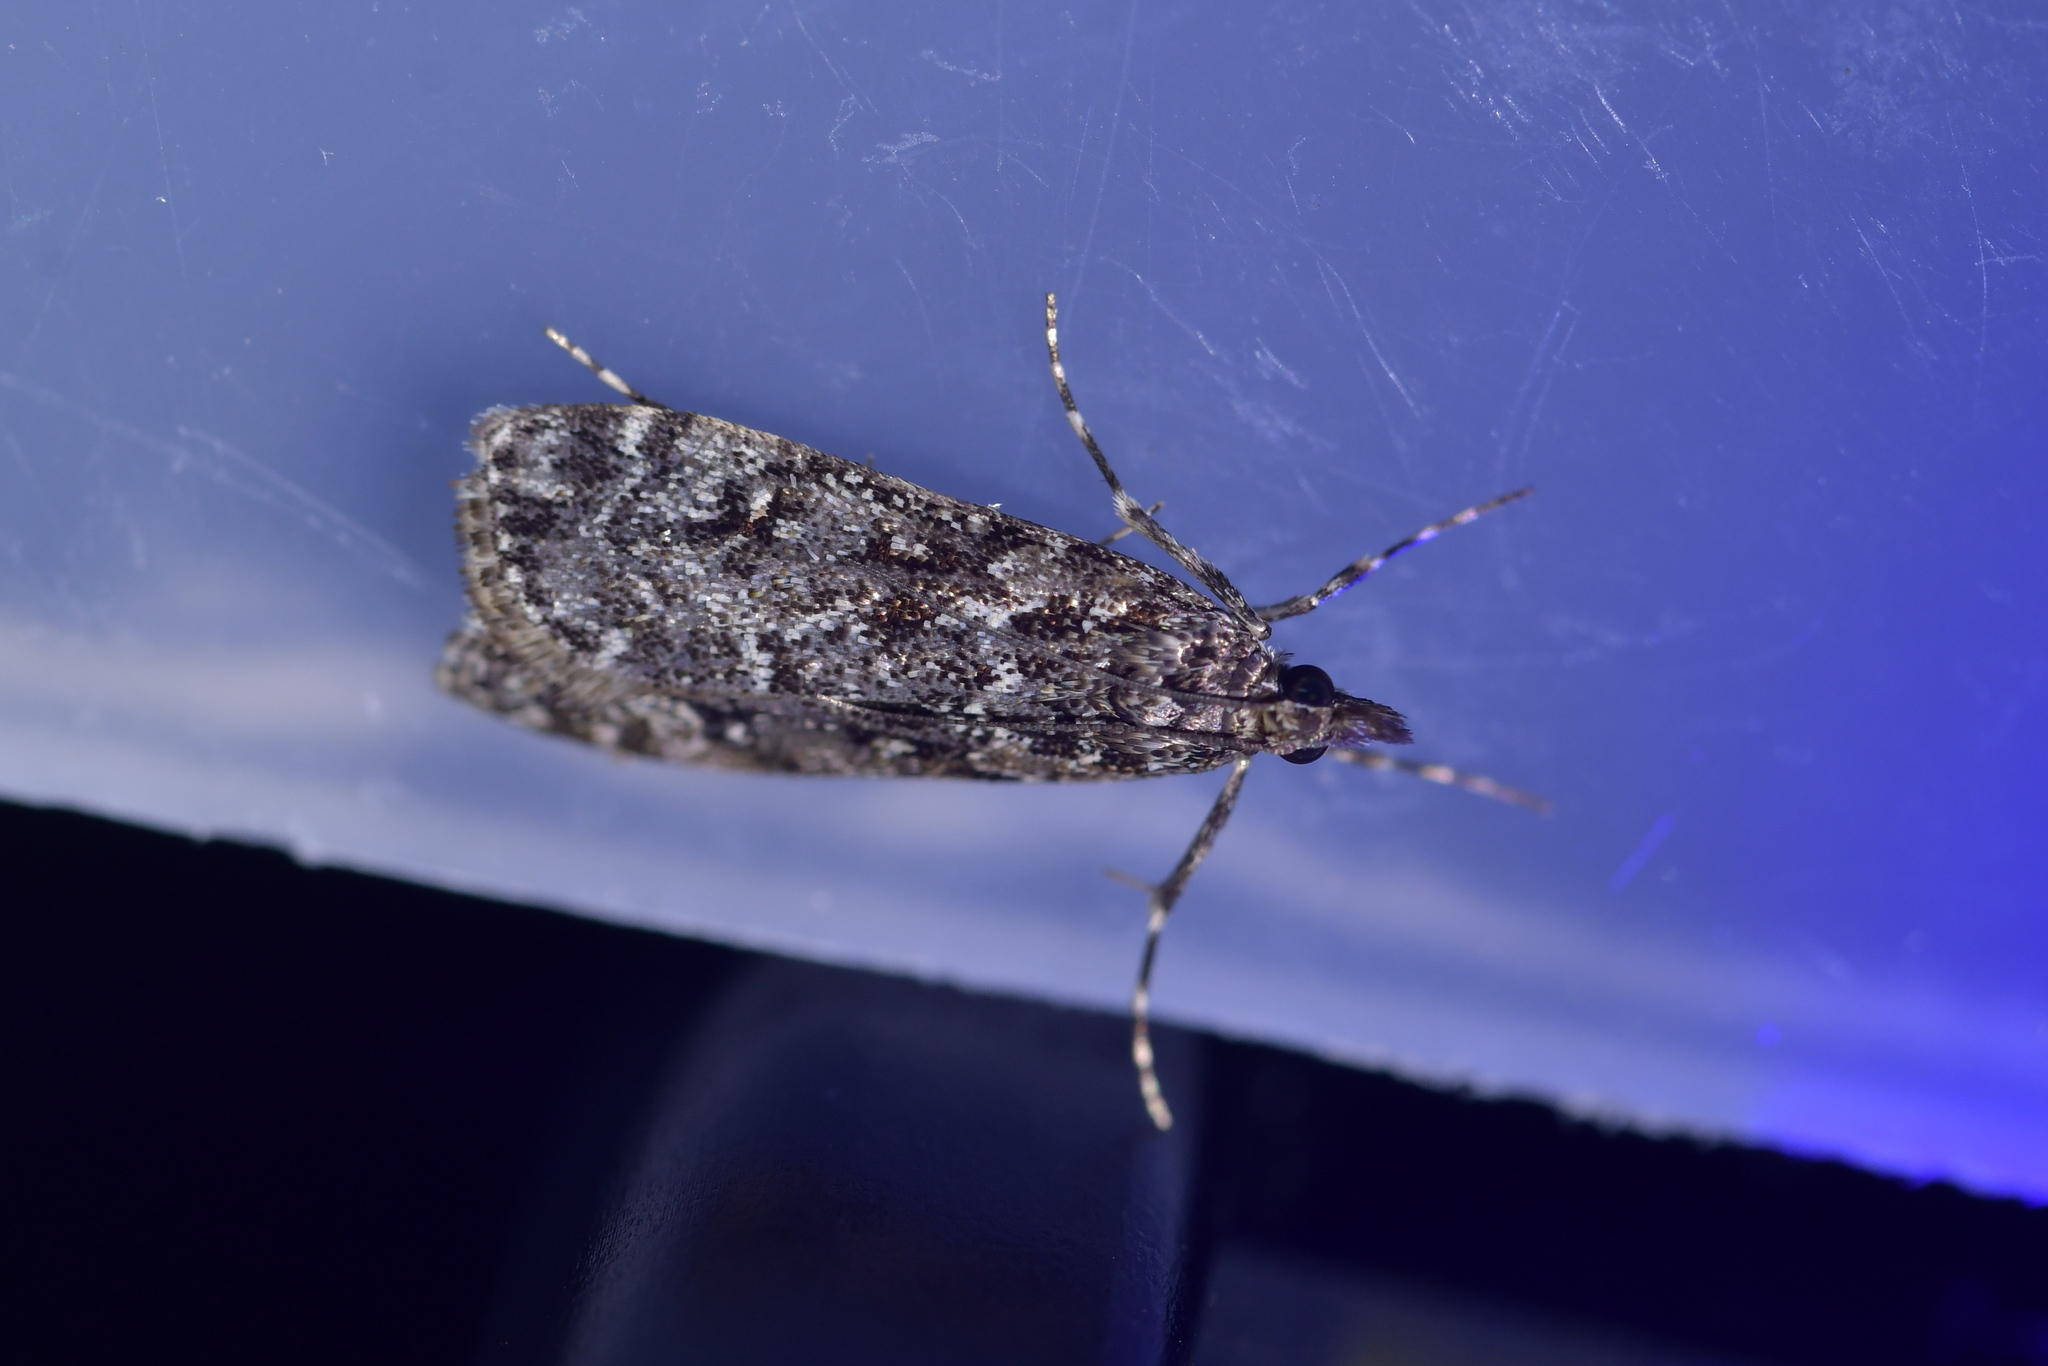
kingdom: Animalia
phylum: Arthropoda
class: Insecta
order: Lepidoptera
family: Crambidae
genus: Eudonia
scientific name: Eudonia philerga
